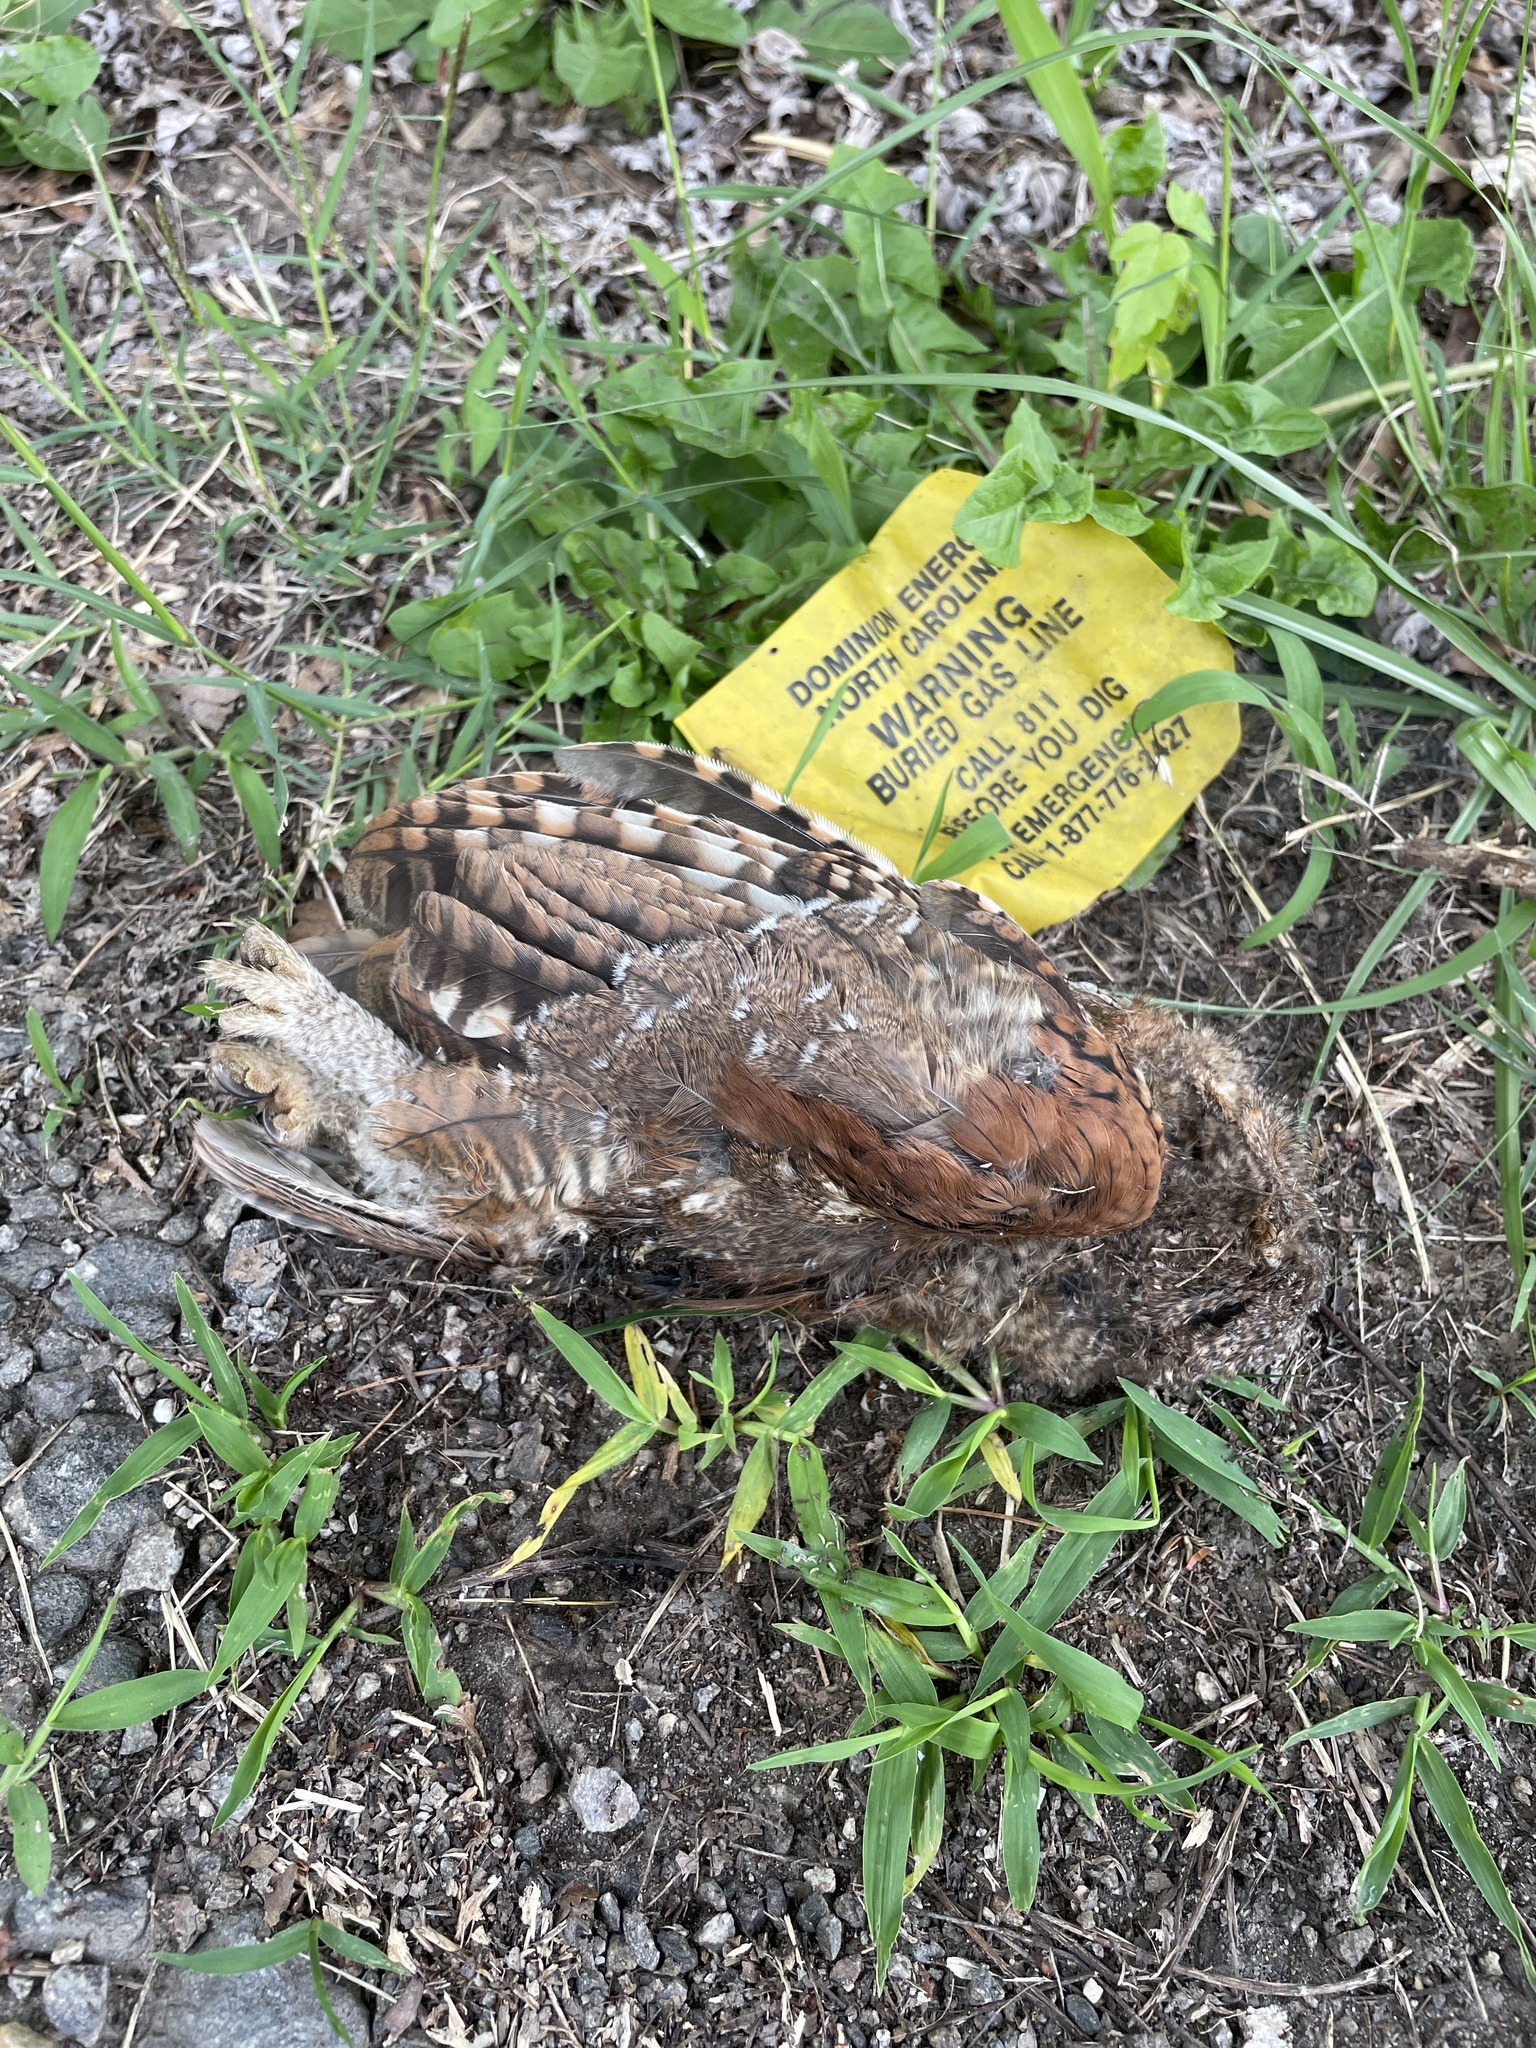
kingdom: Animalia
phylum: Chordata
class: Aves
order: Strigiformes
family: Strigidae
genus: Megascops
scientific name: Megascops asio
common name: Eastern screech-owl
